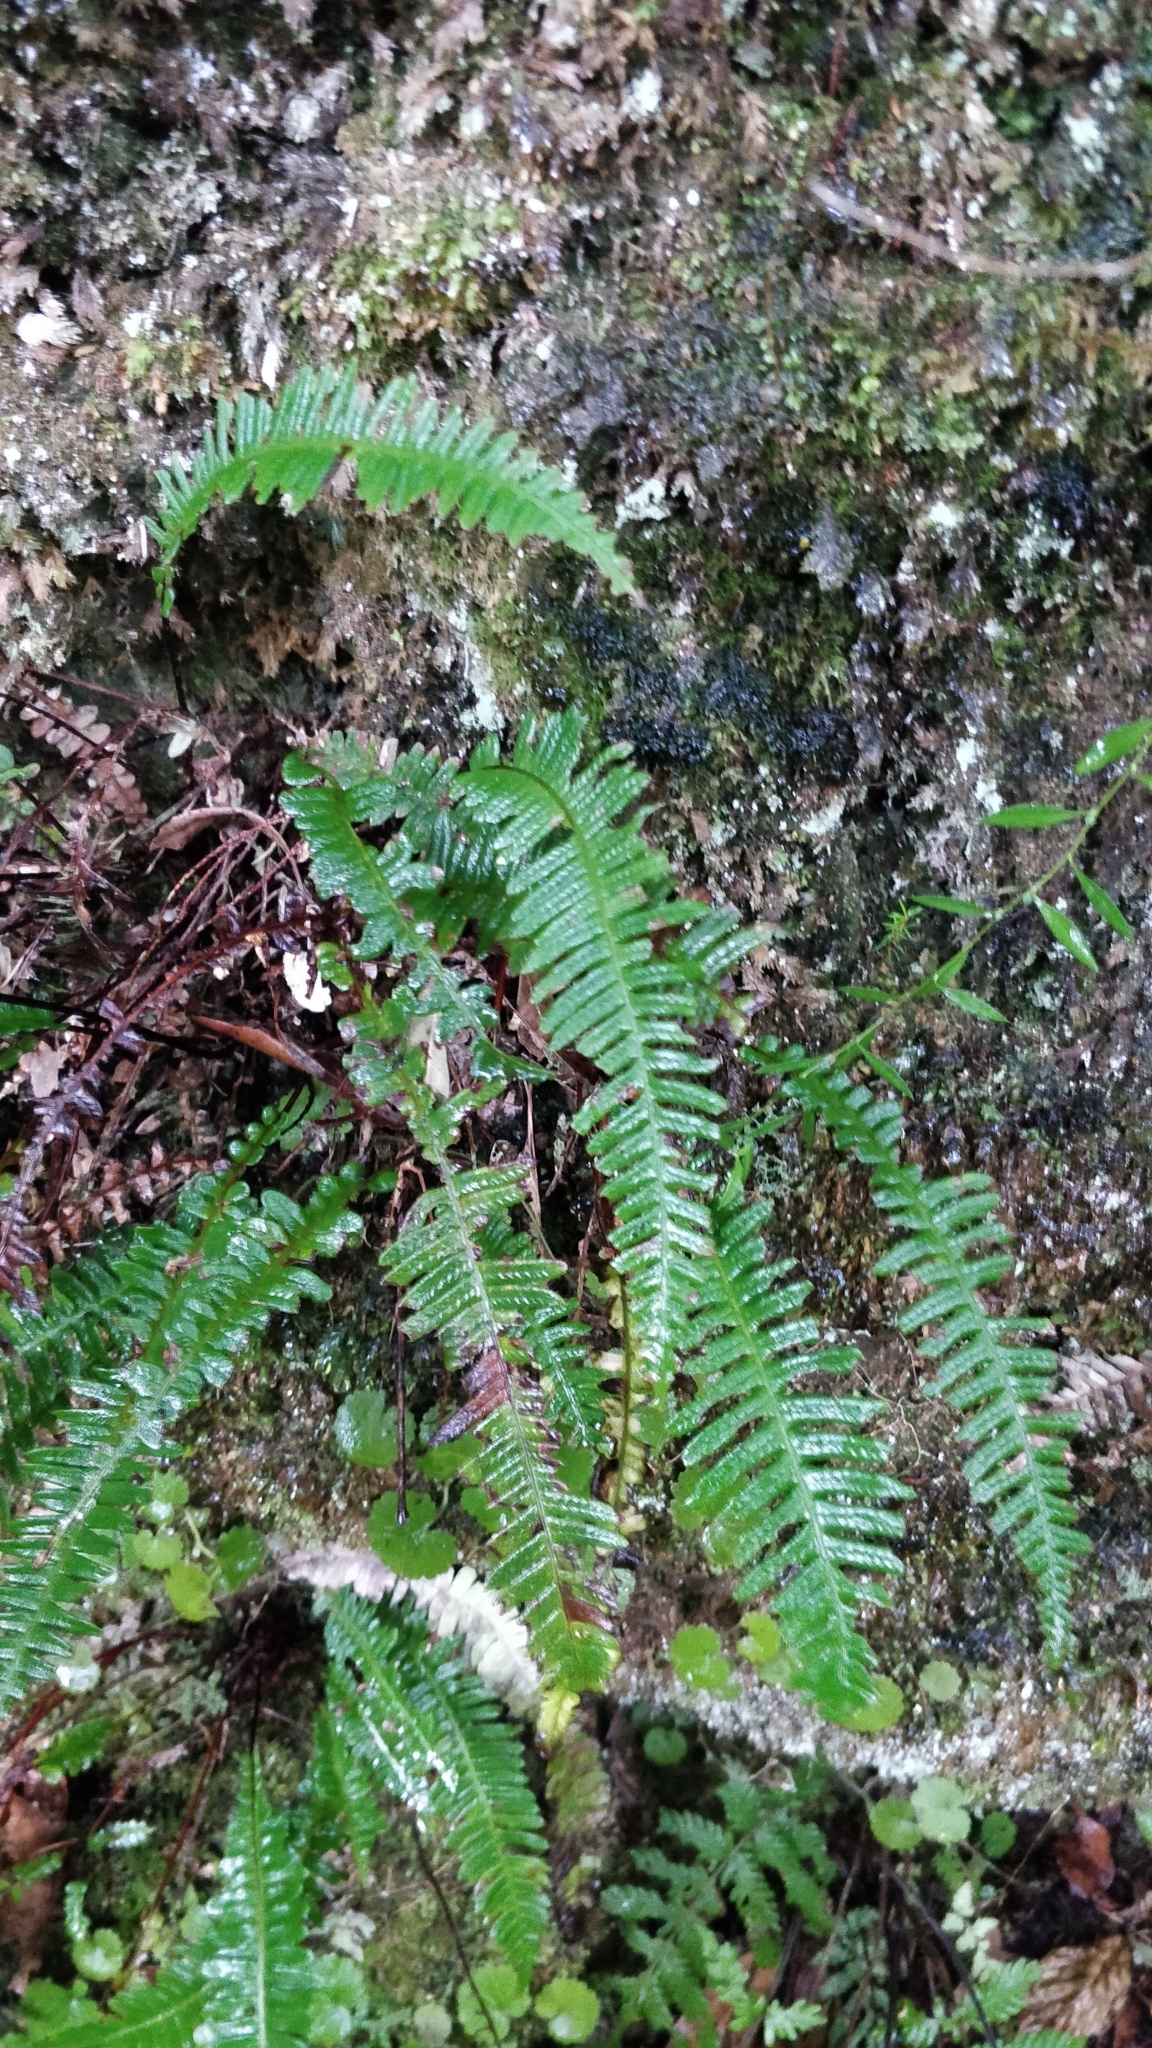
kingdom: Plantae
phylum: Tracheophyta
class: Polypodiopsida
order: Polypodiales
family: Blechnaceae
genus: Struthiopteris
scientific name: Struthiopteris spicant
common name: Deer fern
